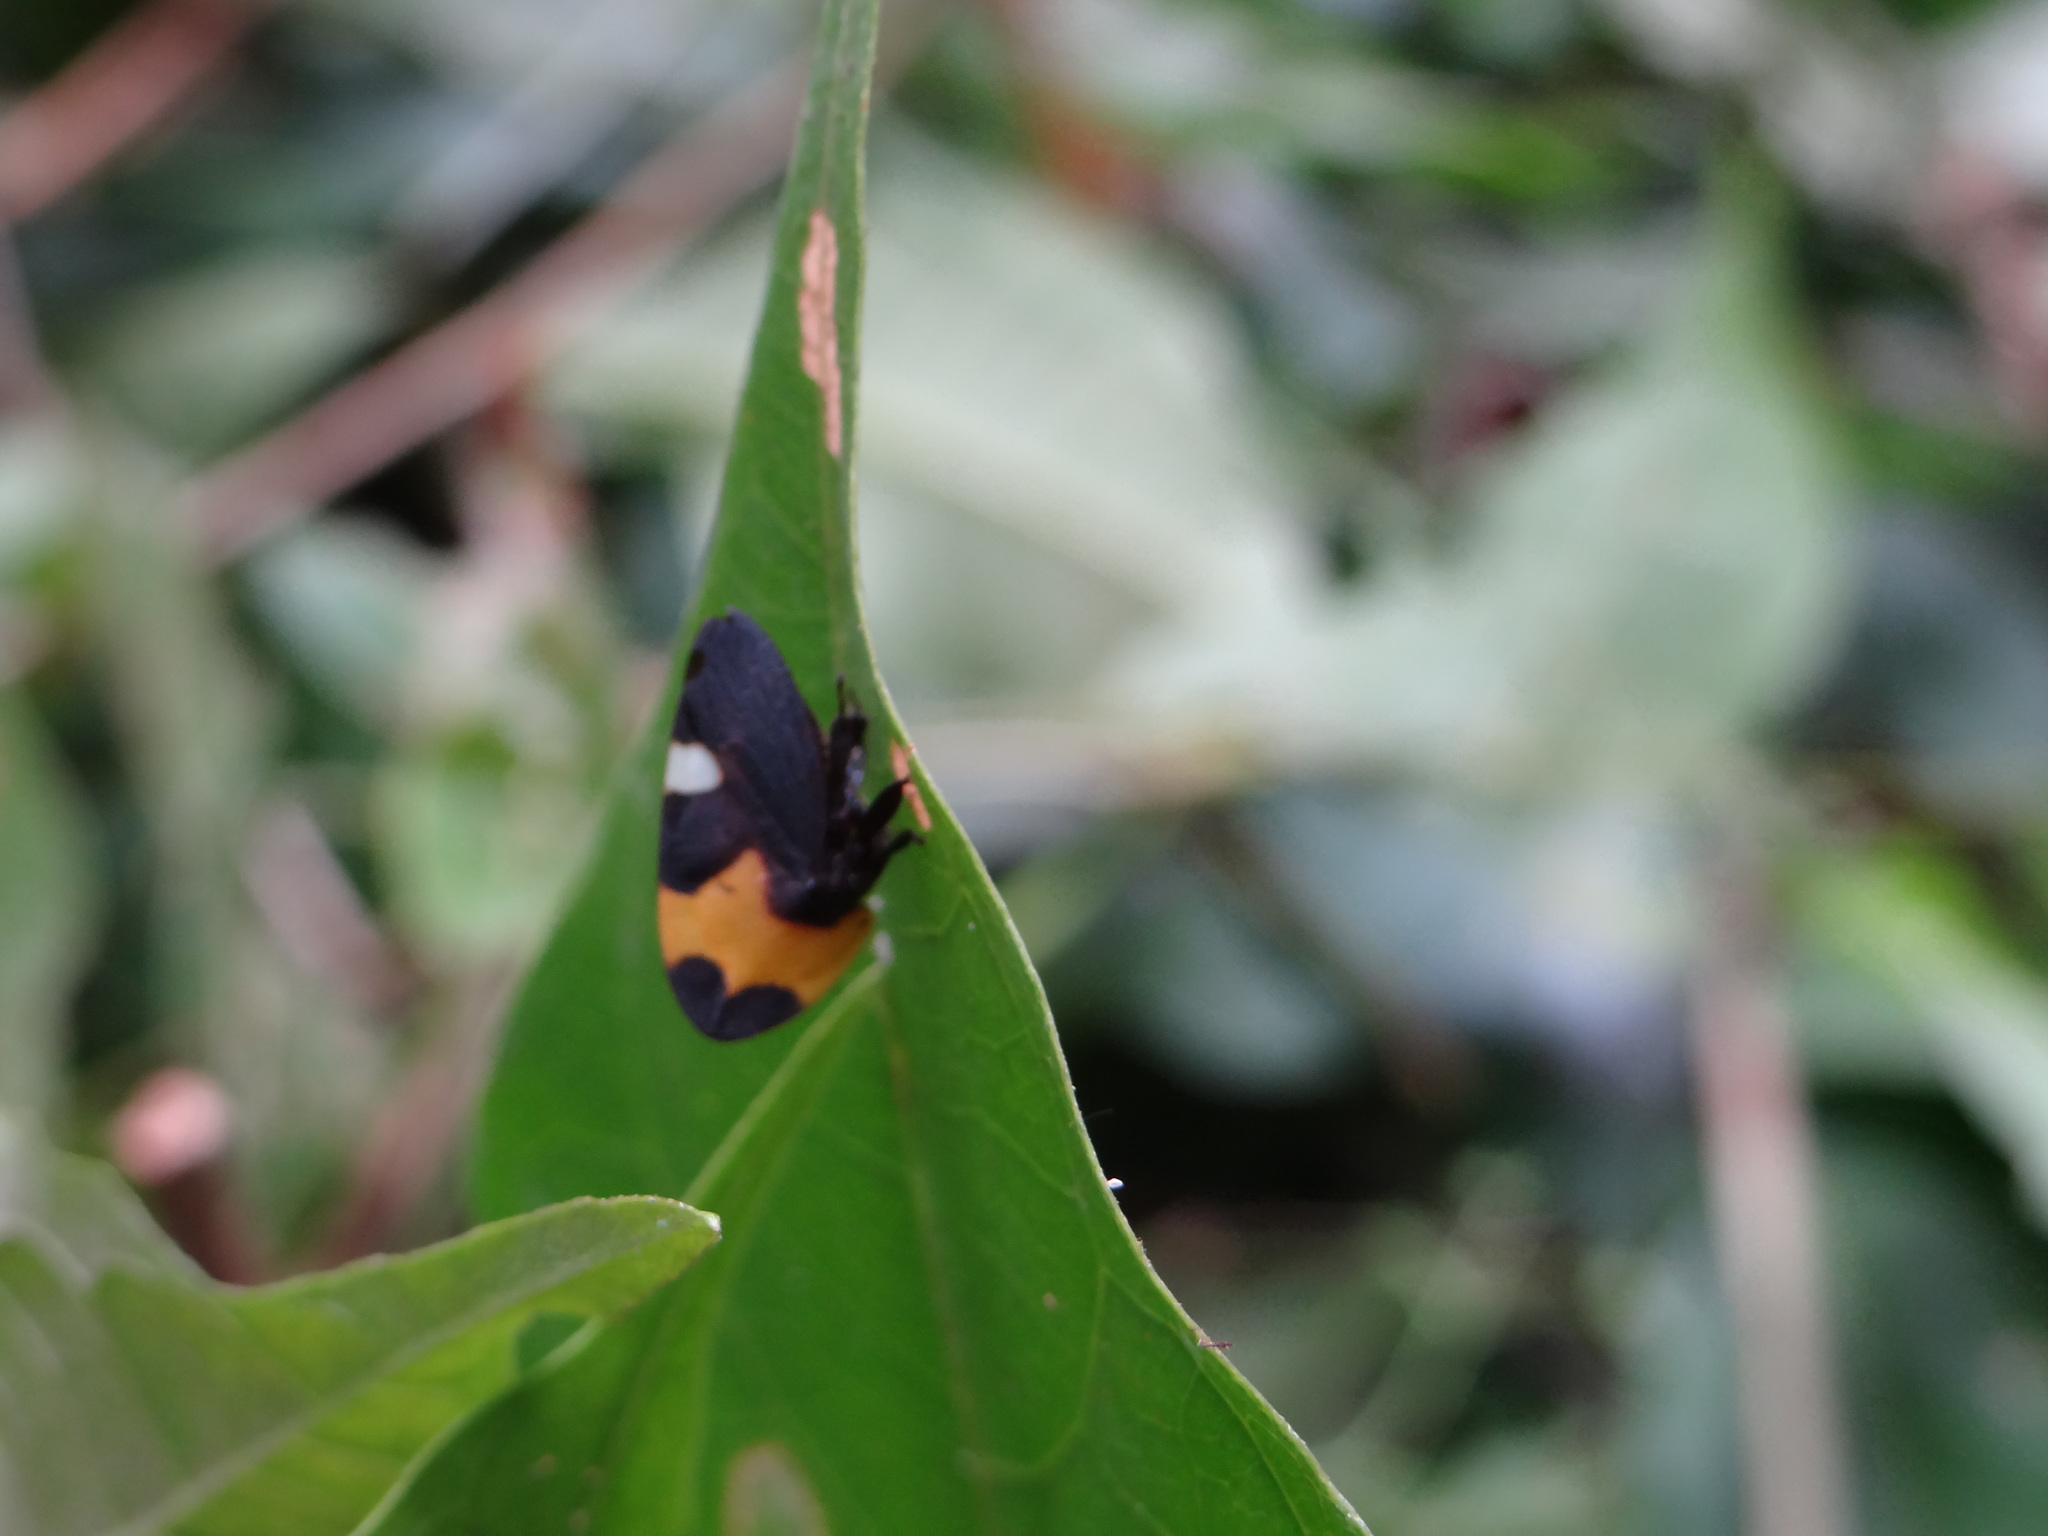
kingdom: Animalia
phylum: Arthropoda
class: Insecta
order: Hemiptera
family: Membracidae
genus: Phyllotropis
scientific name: Phyllotropis fasciata
